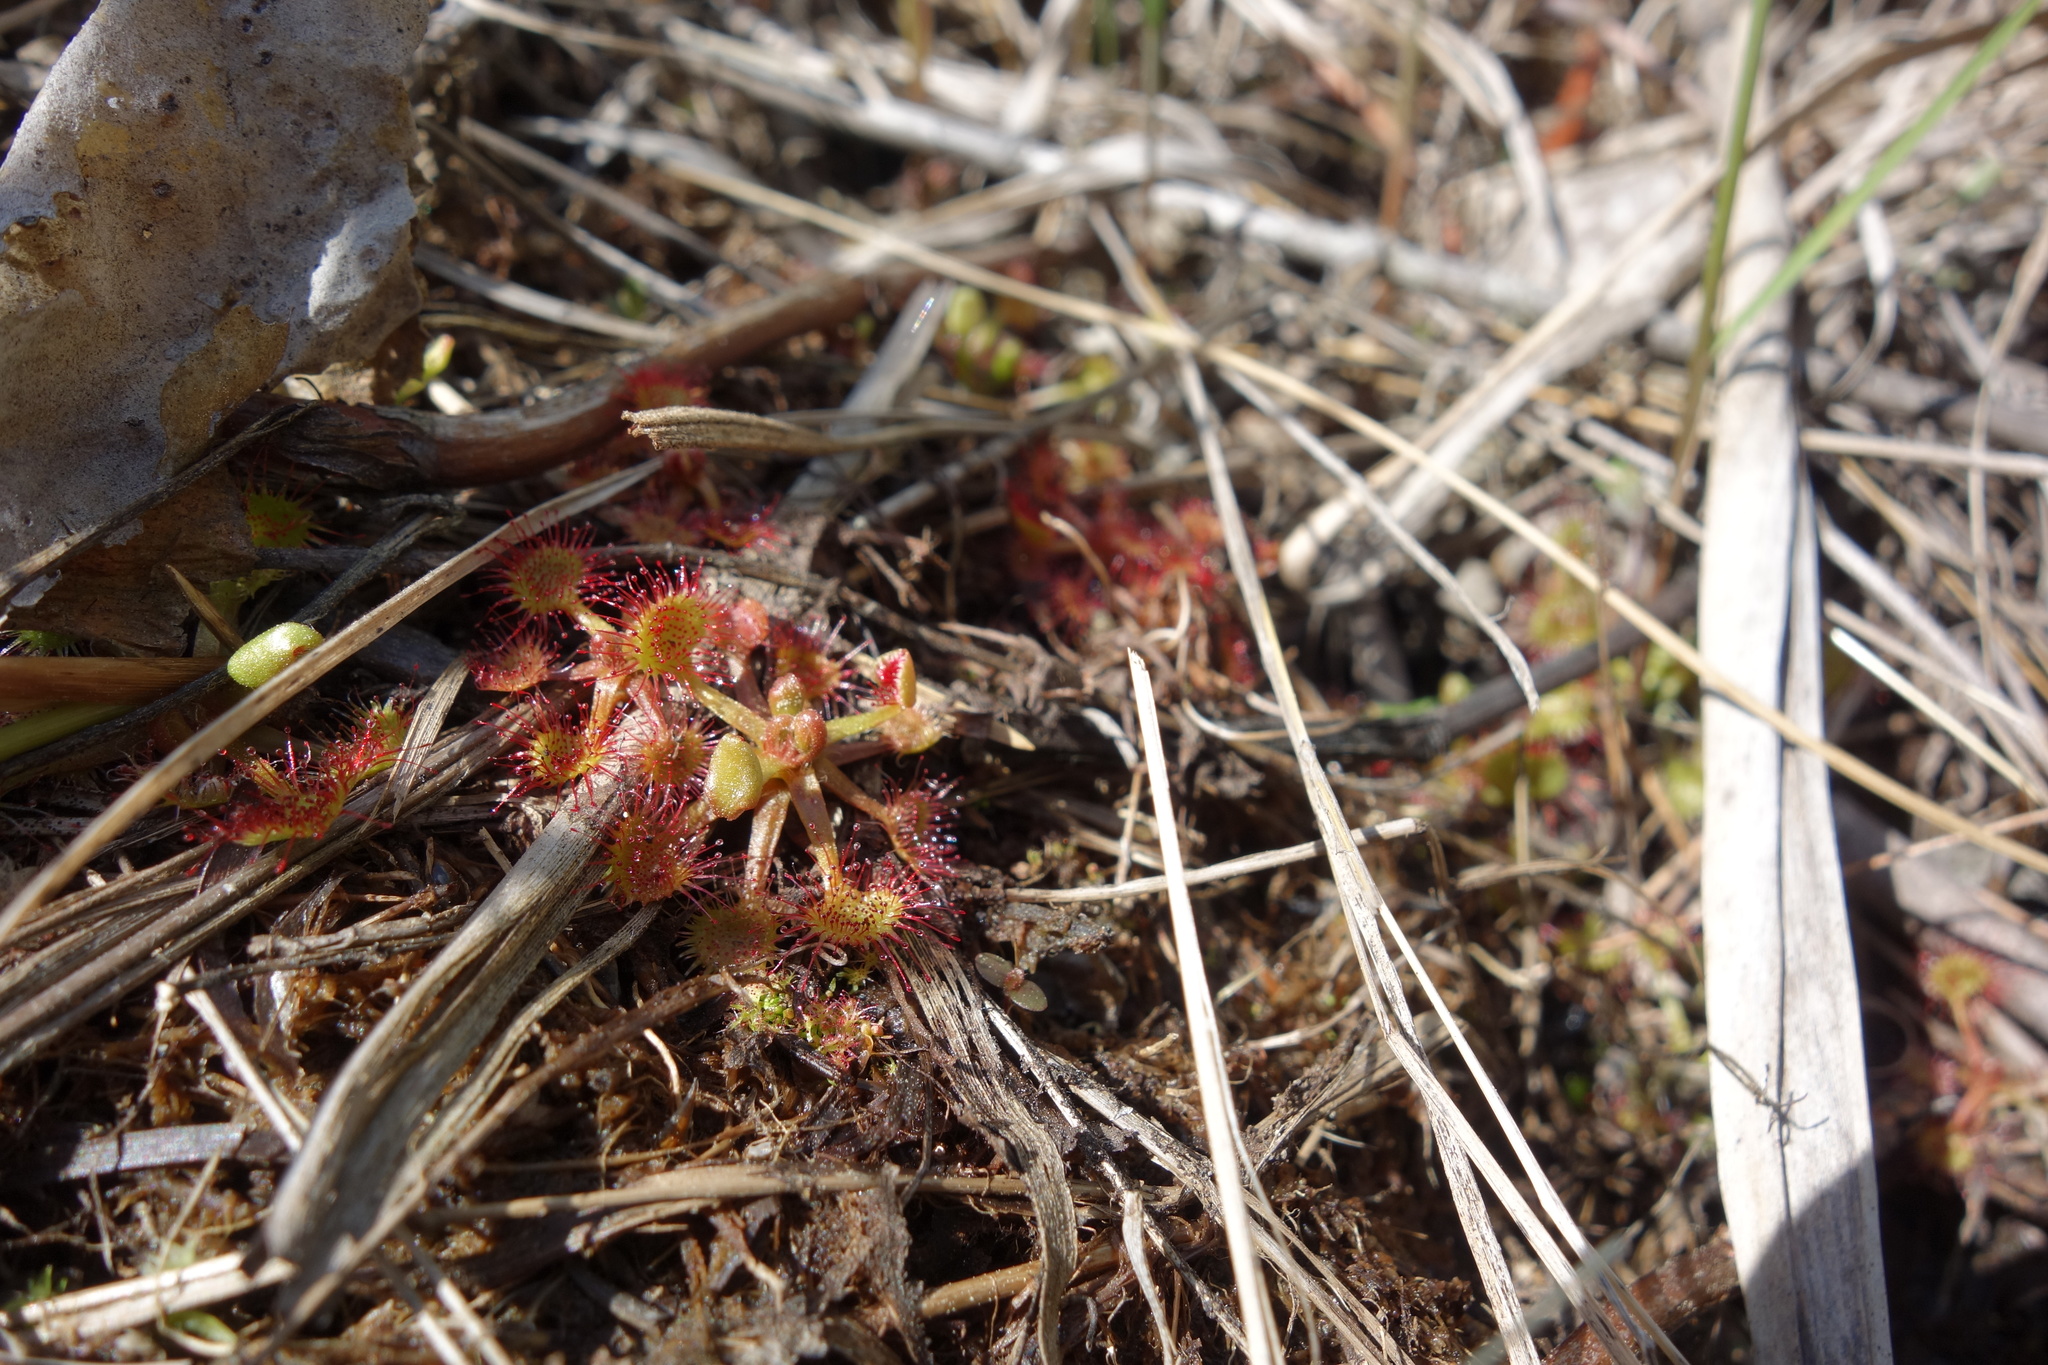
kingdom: Plantae
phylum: Tracheophyta
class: Magnoliopsida
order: Caryophyllales
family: Droseraceae
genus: Drosera
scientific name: Drosera rotundifolia
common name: Round-leaved sundew
